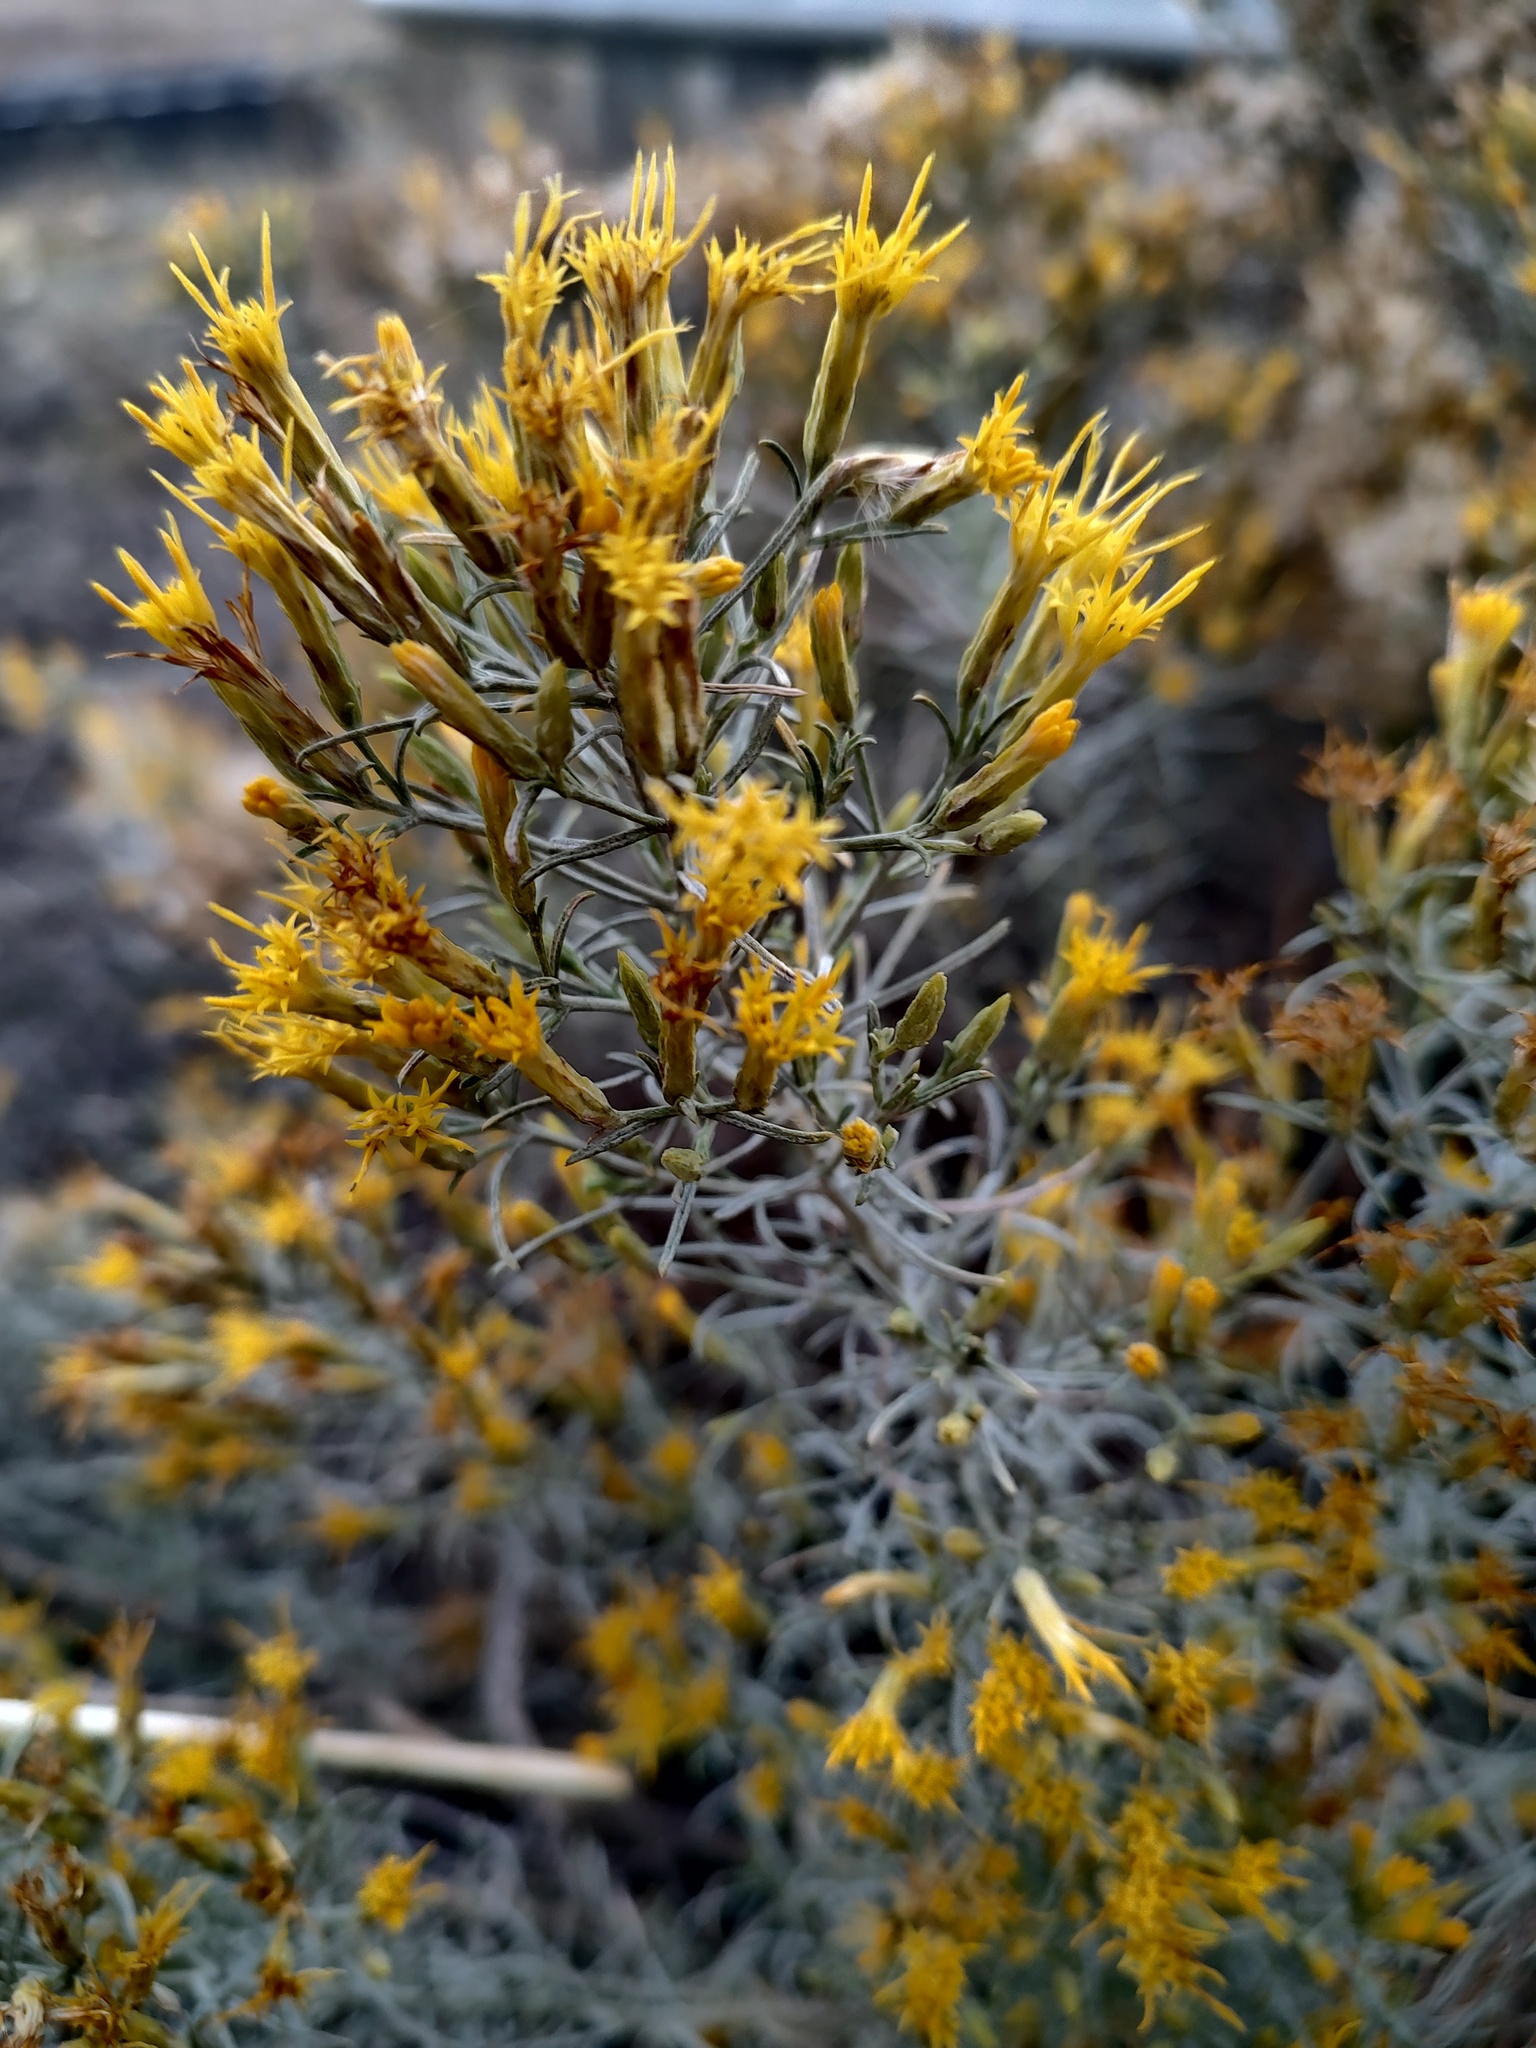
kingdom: Plantae
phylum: Tracheophyta
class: Magnoliopsida
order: Asterales
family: Asteraceae
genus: Ericameria
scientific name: Ericameria nauseosa
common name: Rubber rabbitbrush
